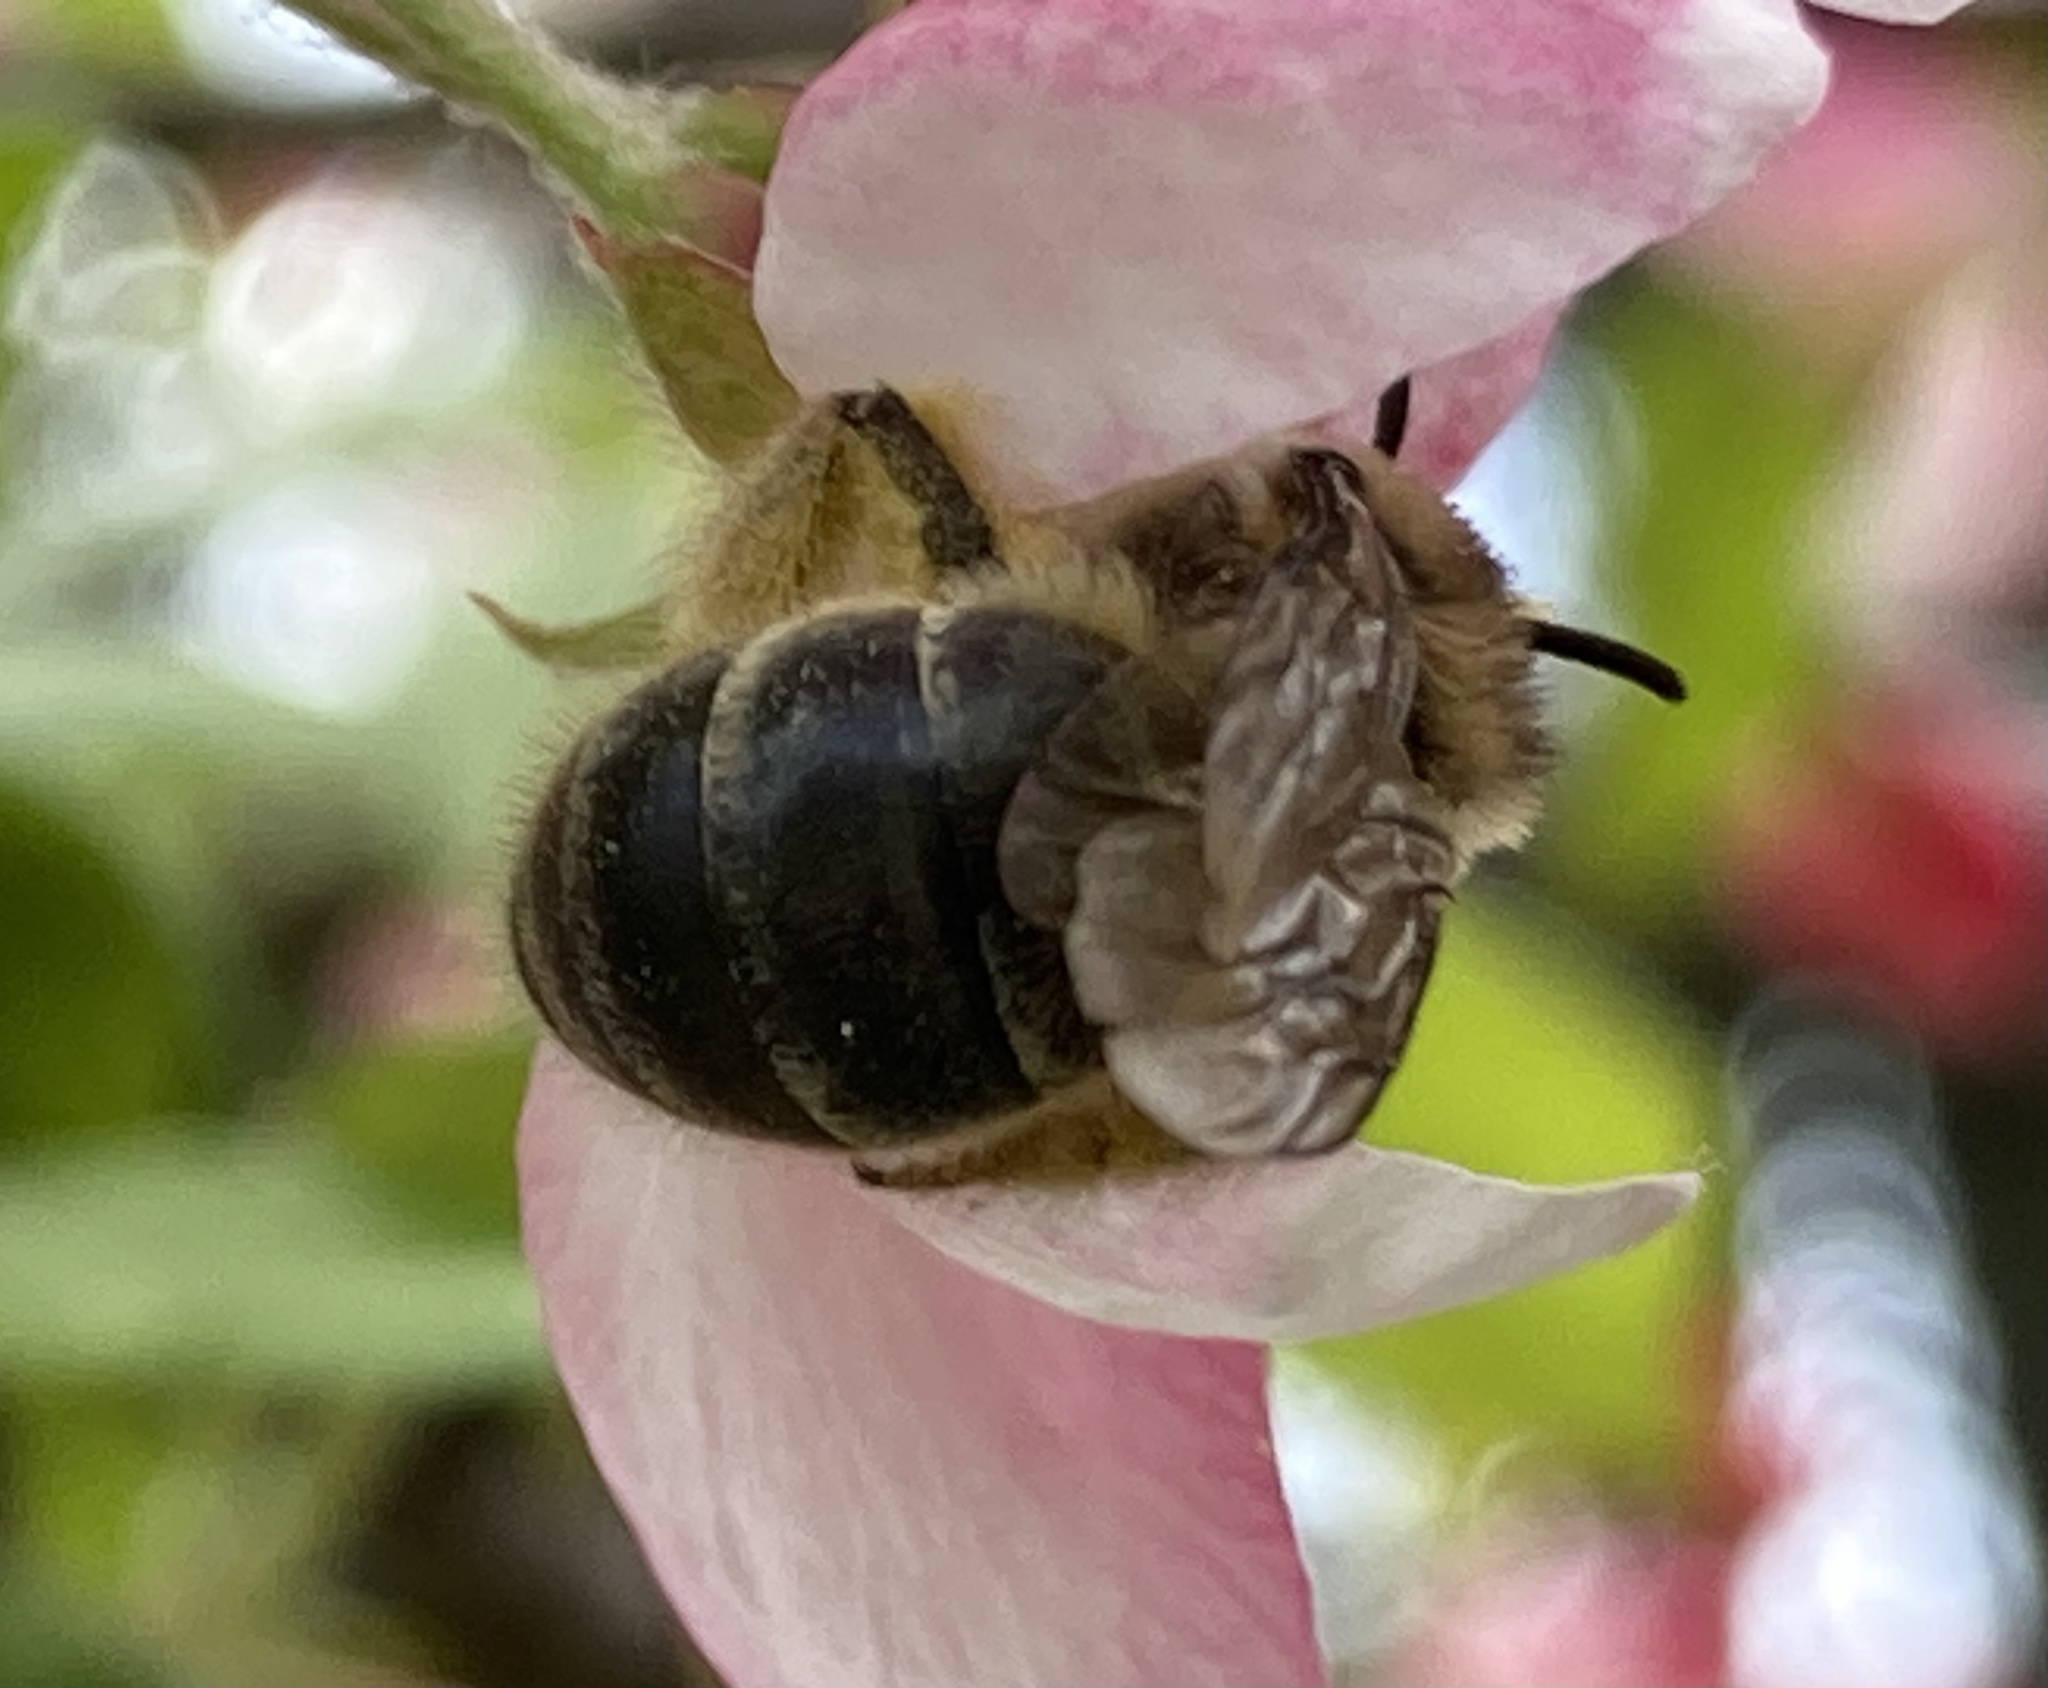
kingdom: Animalia
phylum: Arthropoda
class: Insecta
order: Hymenoptera
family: Colletidae
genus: Colletes
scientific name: Colletes inaequalis
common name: Unequal cellophane bee
